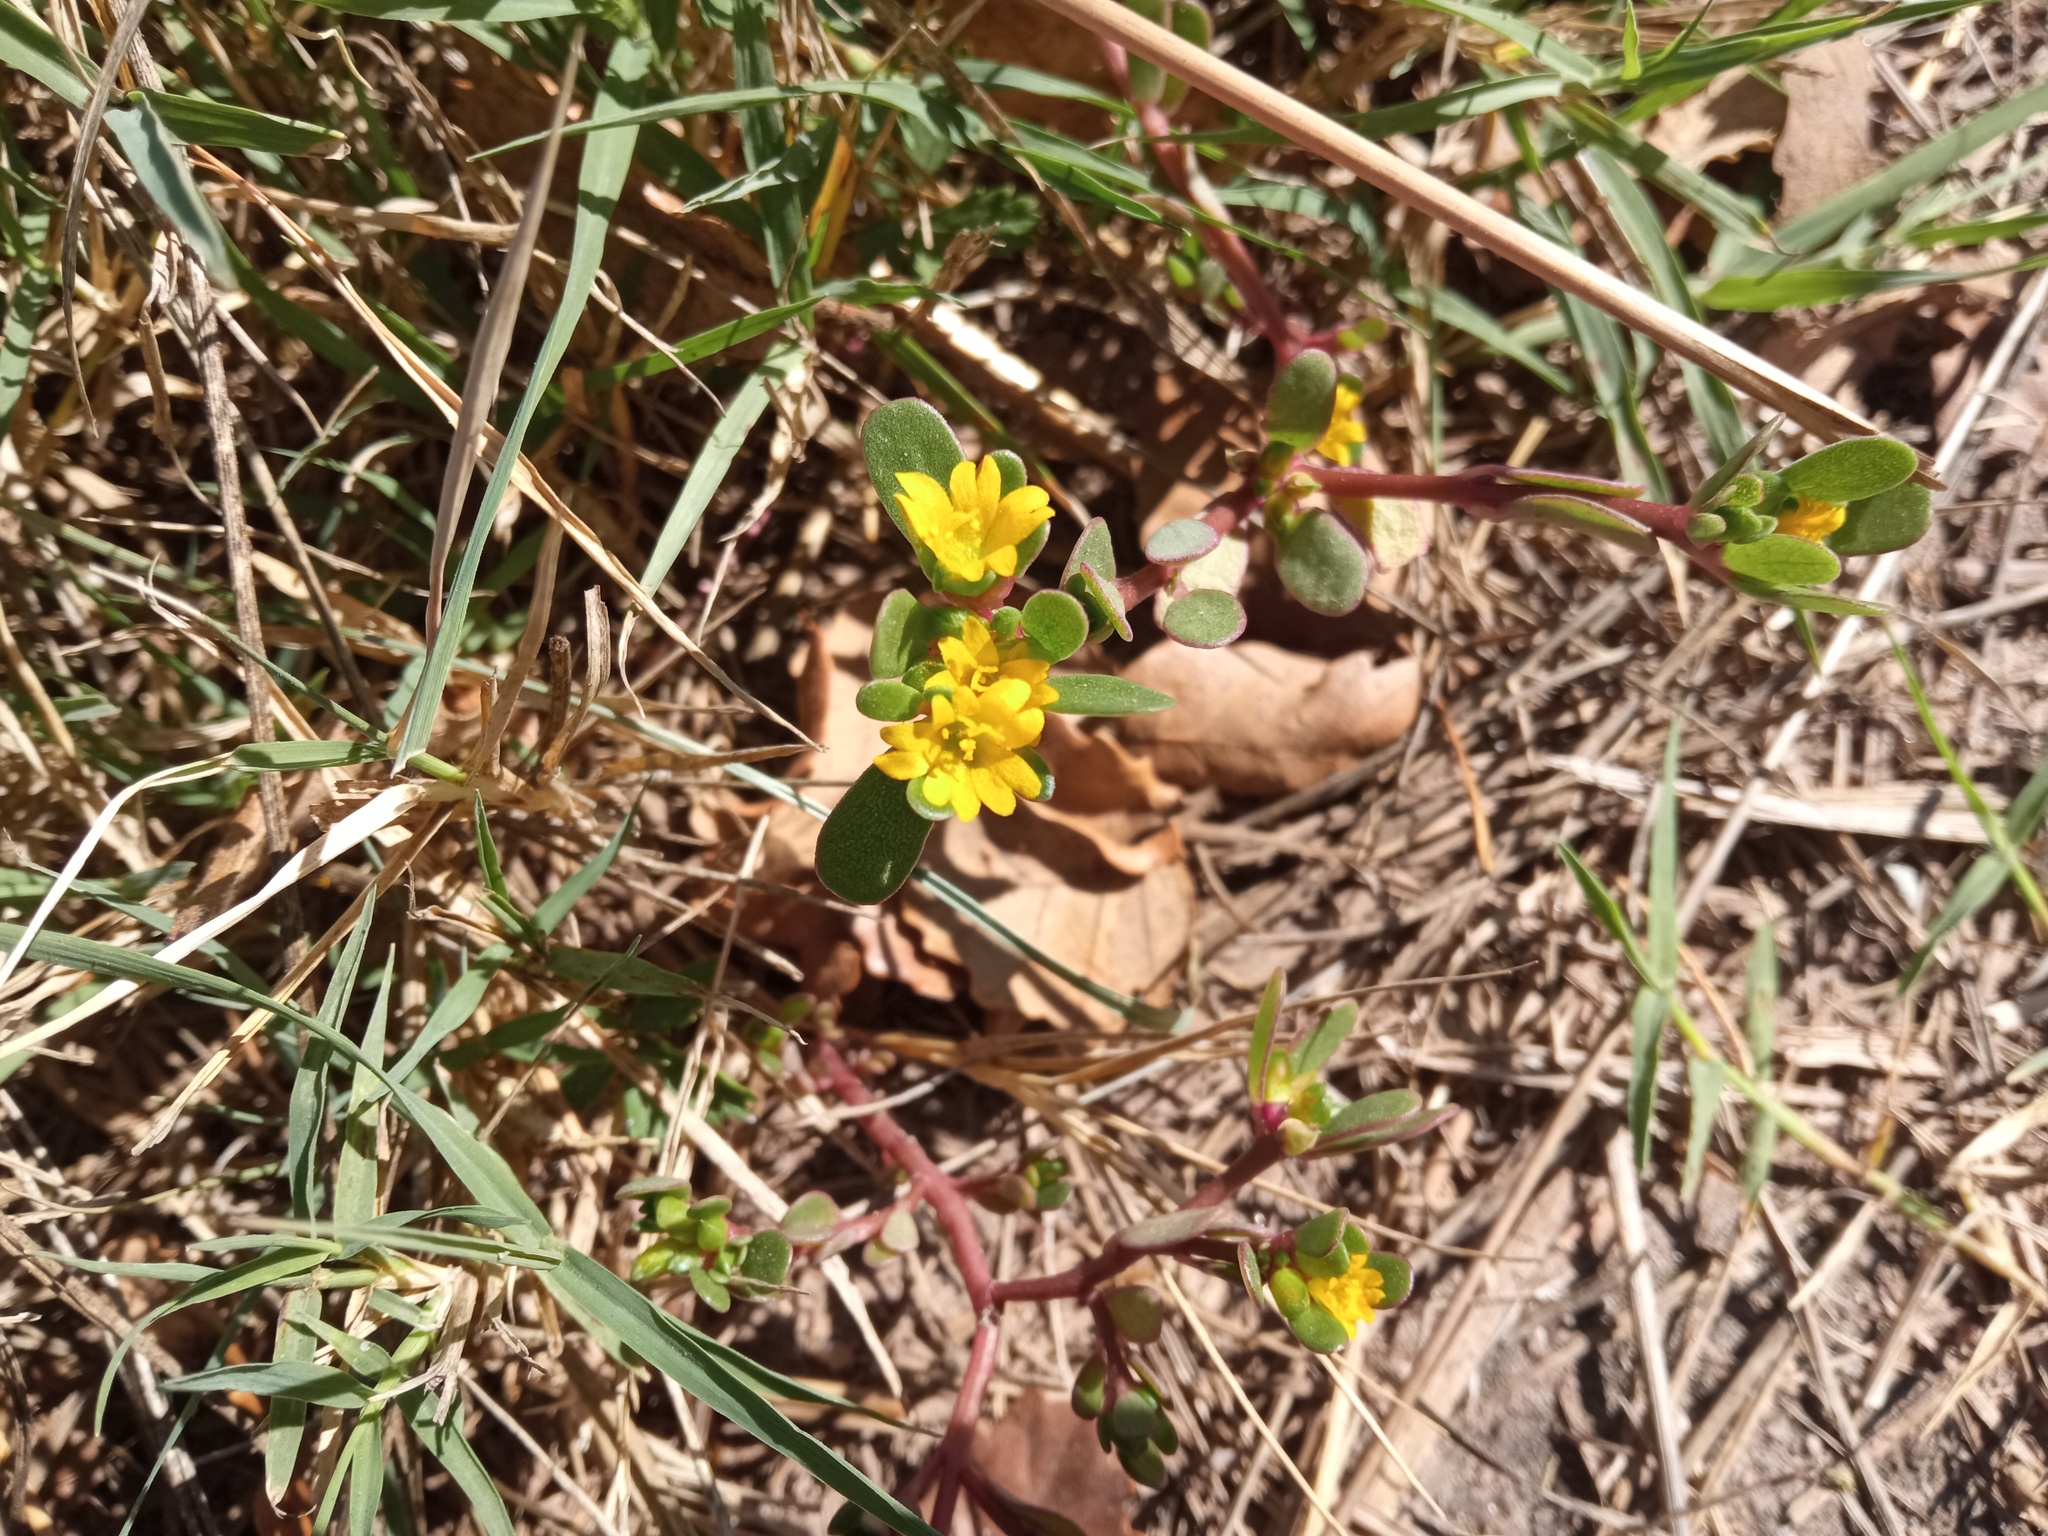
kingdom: Plantae
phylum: Tracheophyta
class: Magnoliopsida
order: Caryophyllales
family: Portulacaceae
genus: Portulaca
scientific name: Portulaca oleracea
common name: Common purslane
